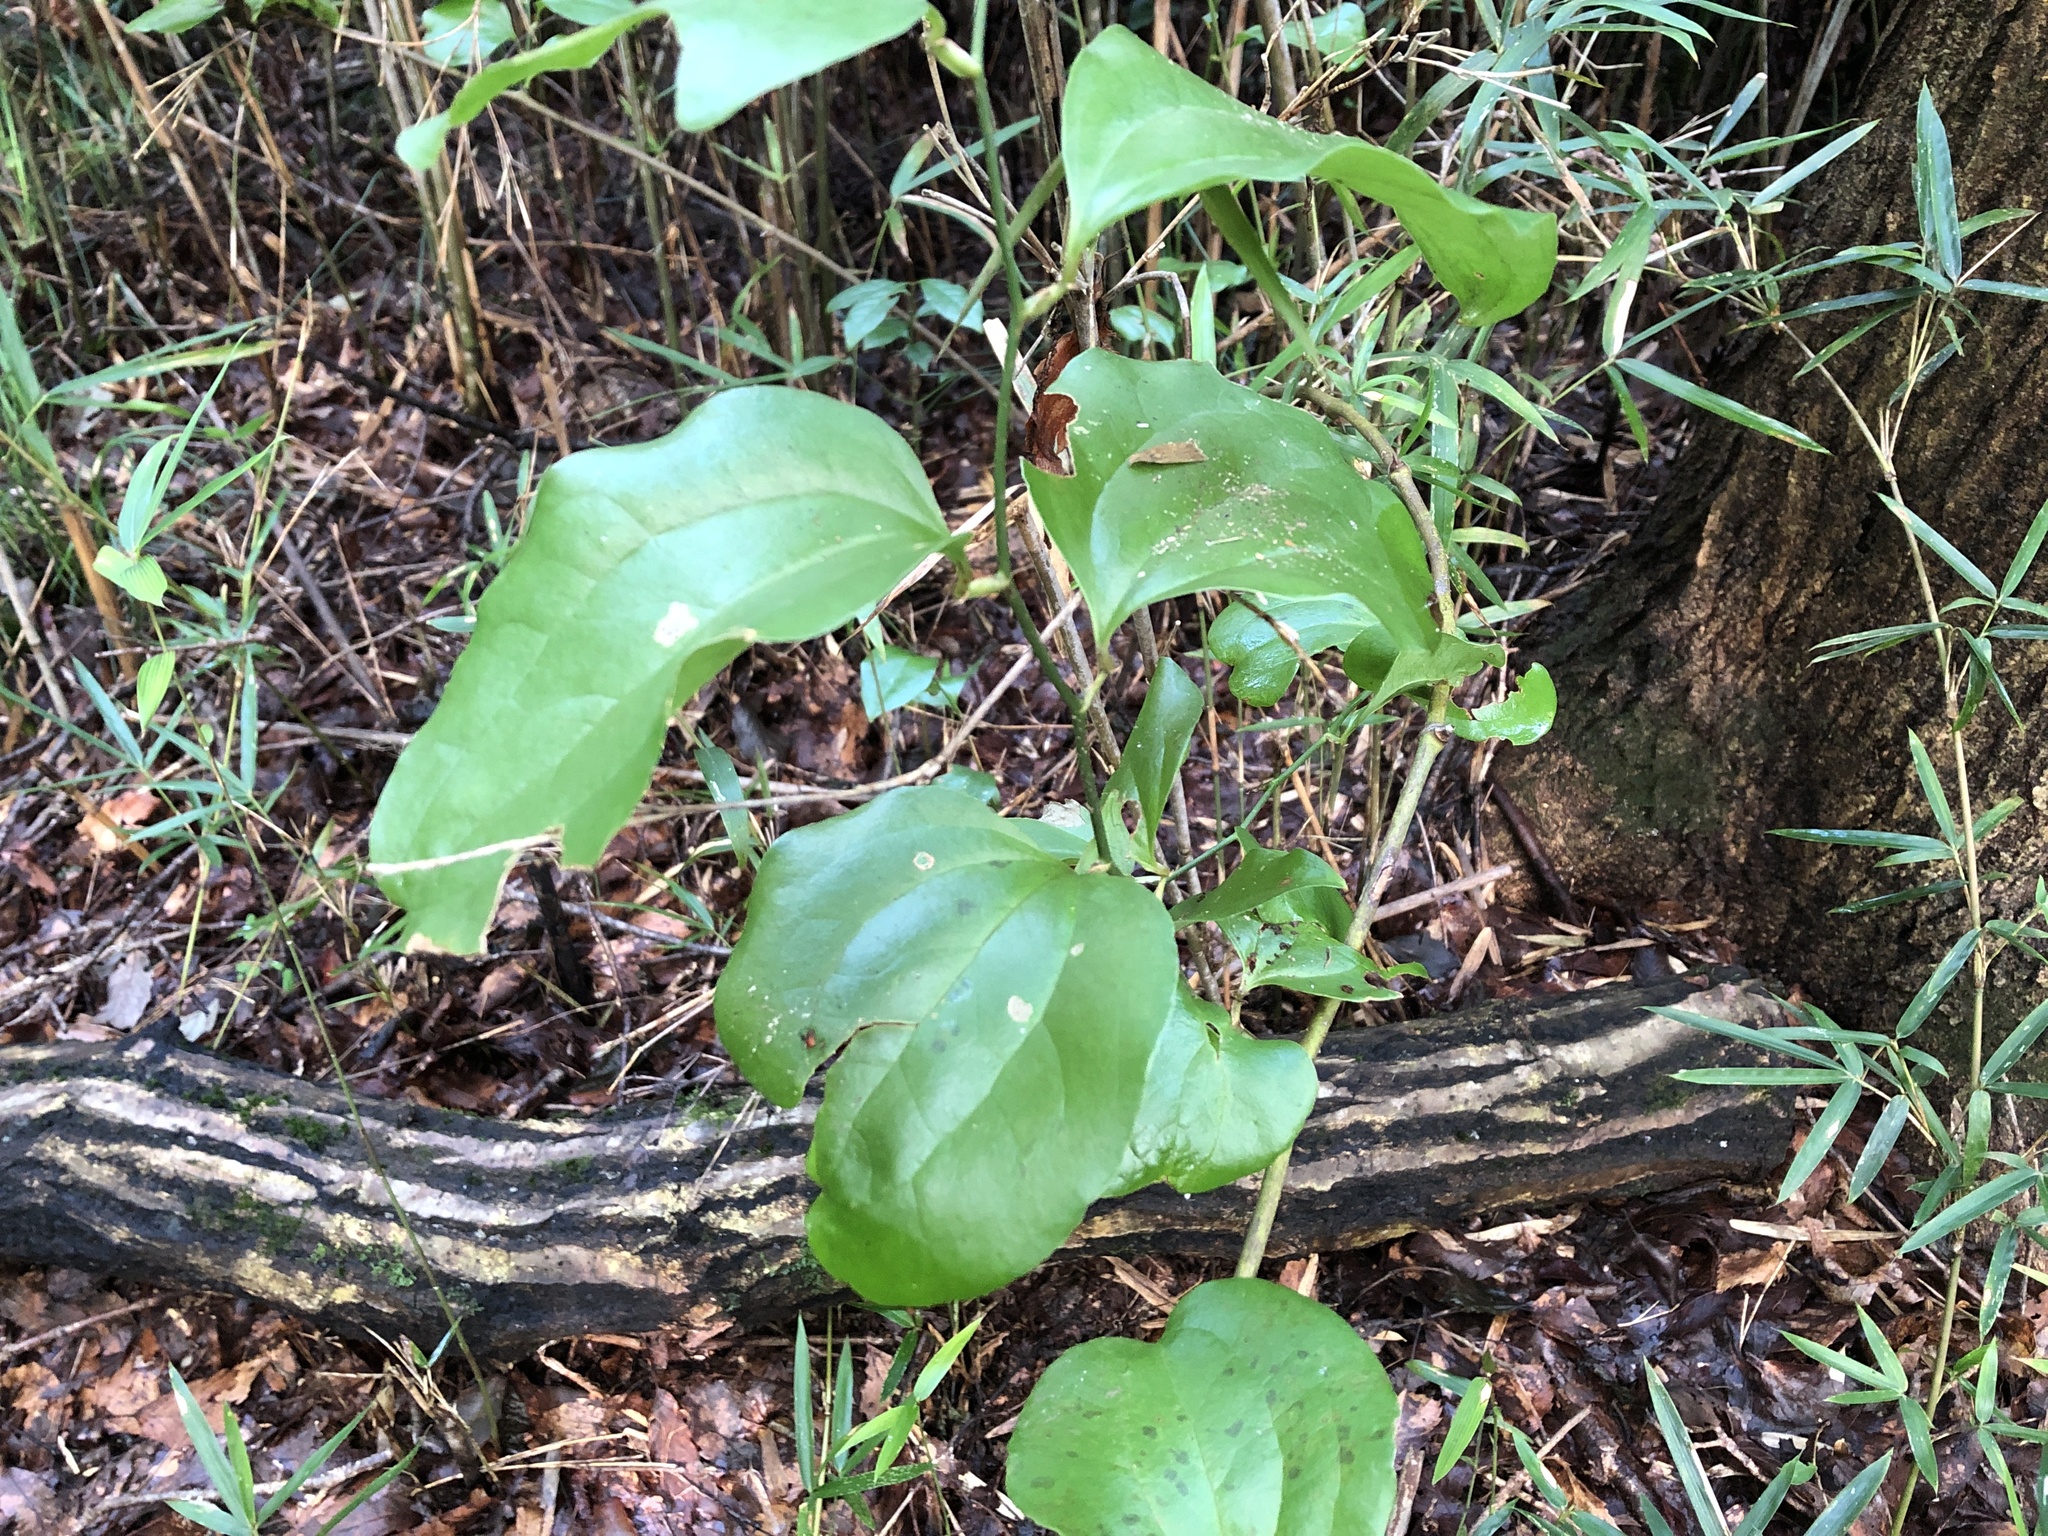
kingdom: Plantae
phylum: Tracheophyta
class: Liliopsida
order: Liliales
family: Smilacaceae
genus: Smilax
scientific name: Smilax china
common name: Chinaroot
